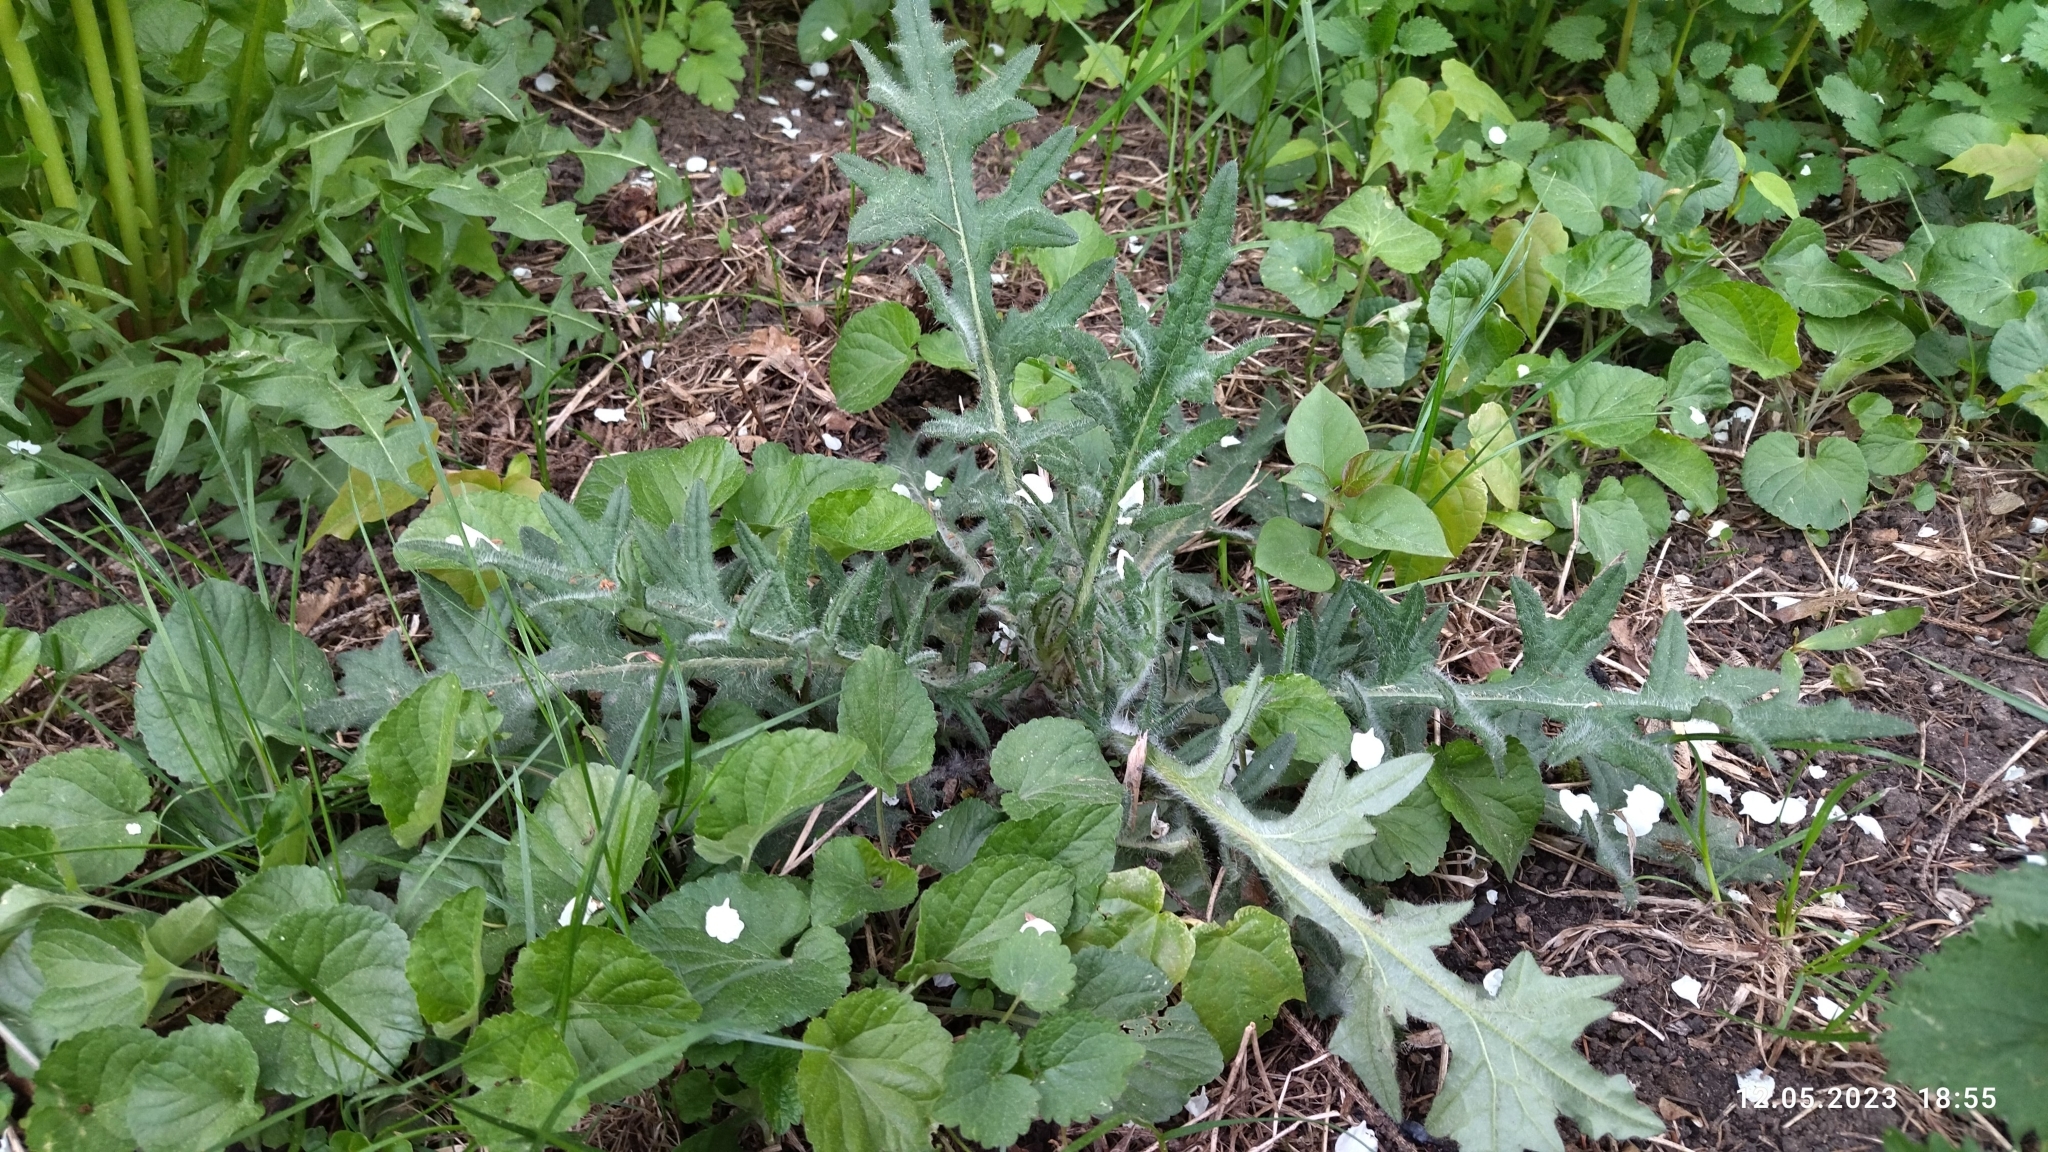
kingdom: Plantae
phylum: Tracheophyta
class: Magnoliopsida
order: Asterales
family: Asteraceae
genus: Cirsium
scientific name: Cirsium vulgare
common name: Bull thistle
